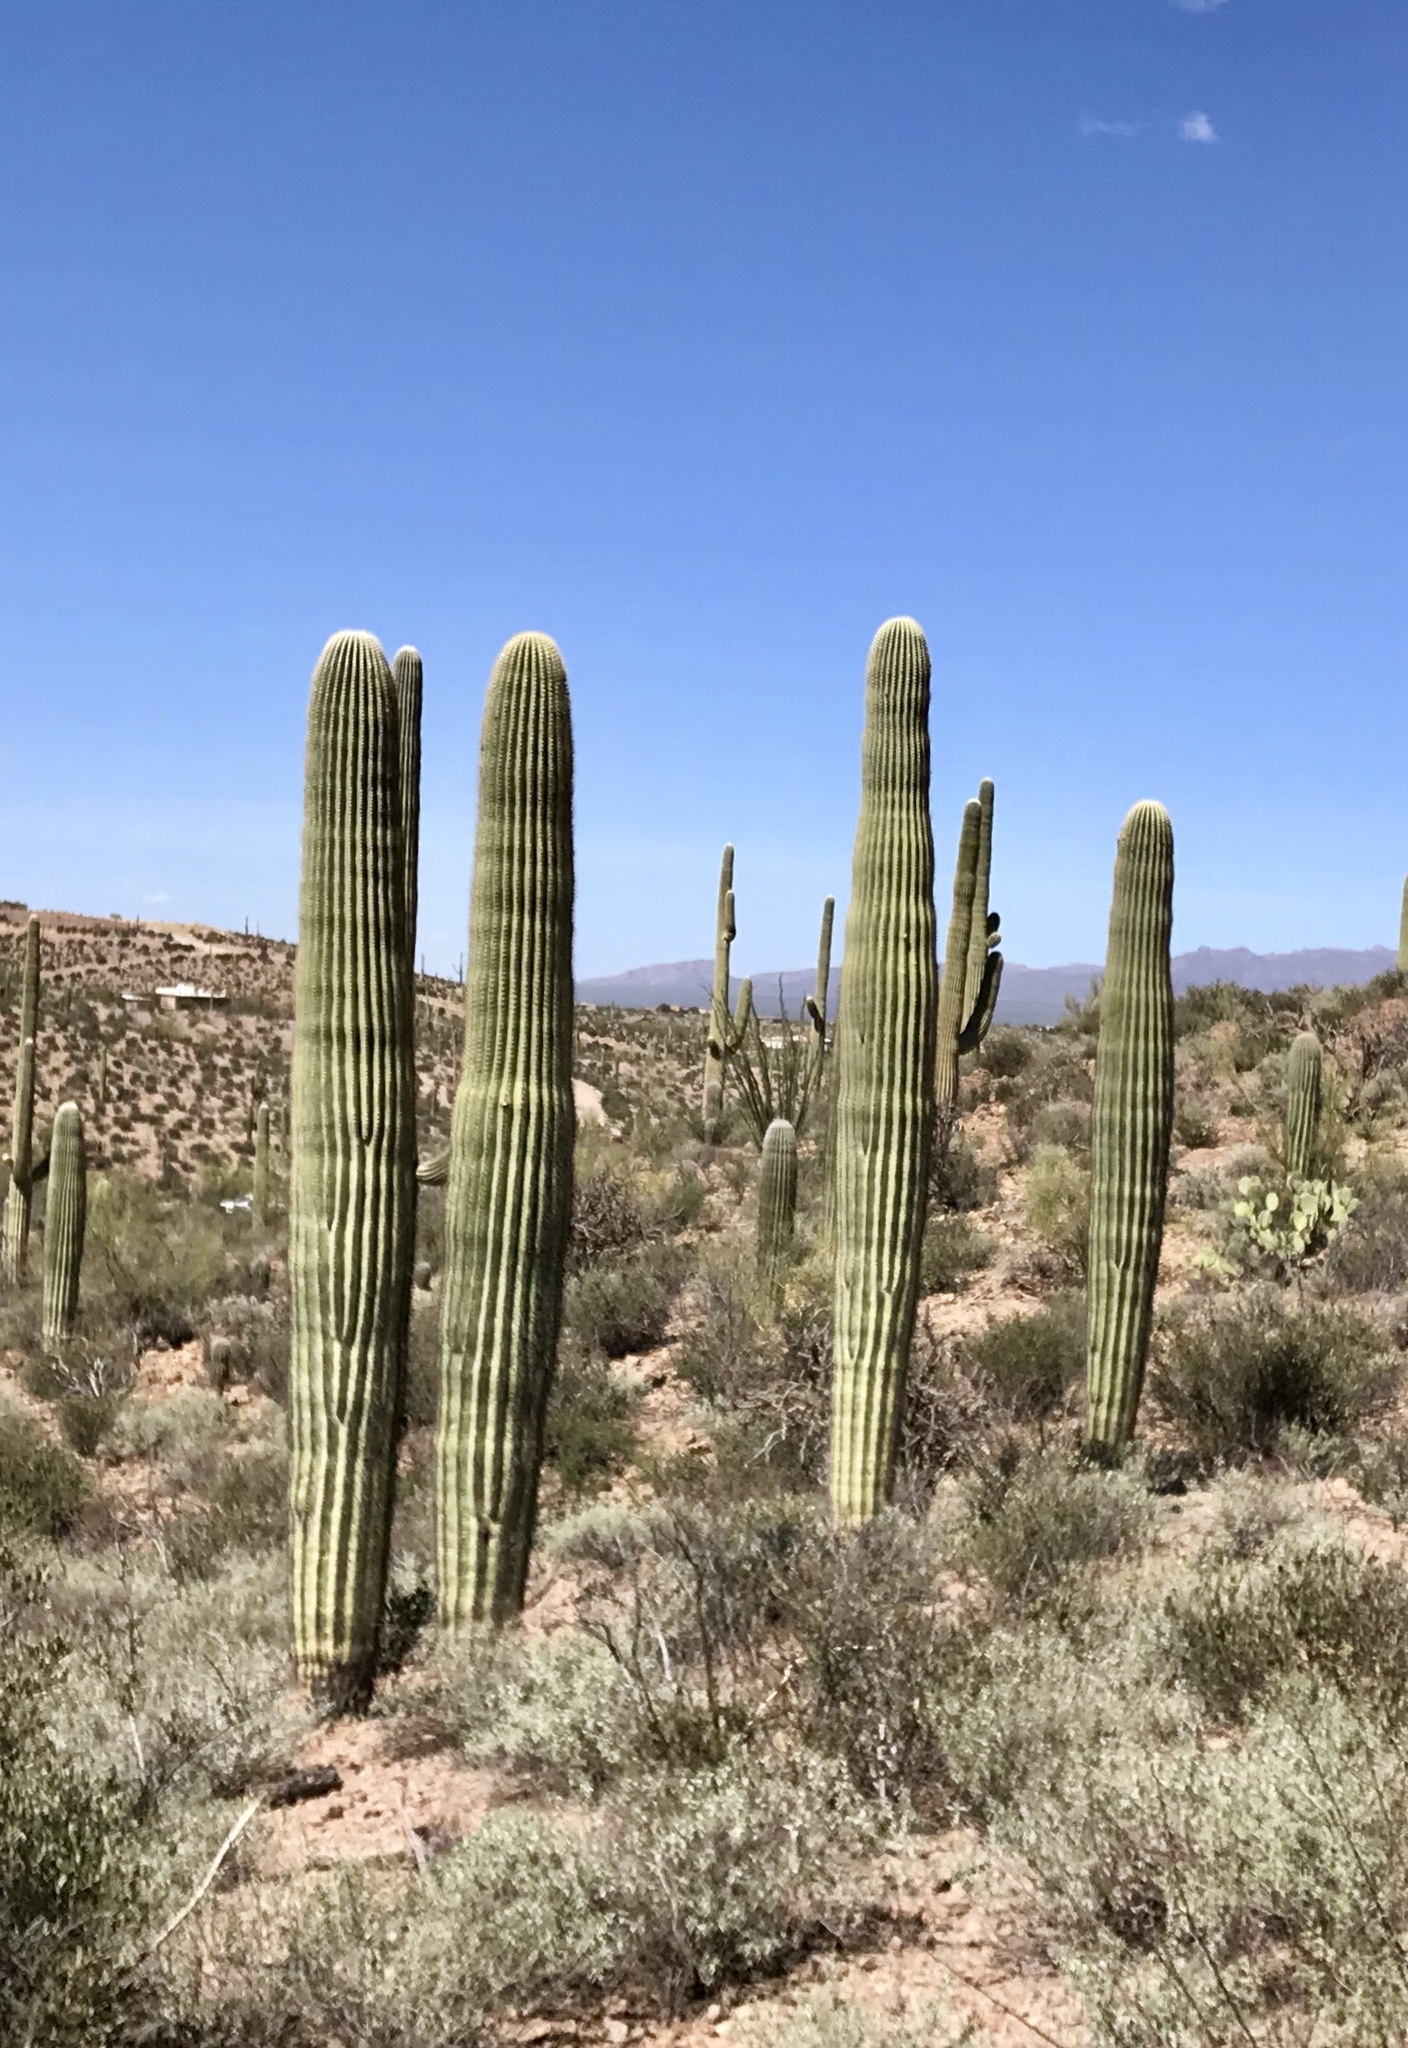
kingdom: Plantae
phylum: Tracheophyta
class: Magnoliopsida
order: Caryophyllales
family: Cactaceae
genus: Carnegiea
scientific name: Carnegiea gigantea
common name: Saguaro
